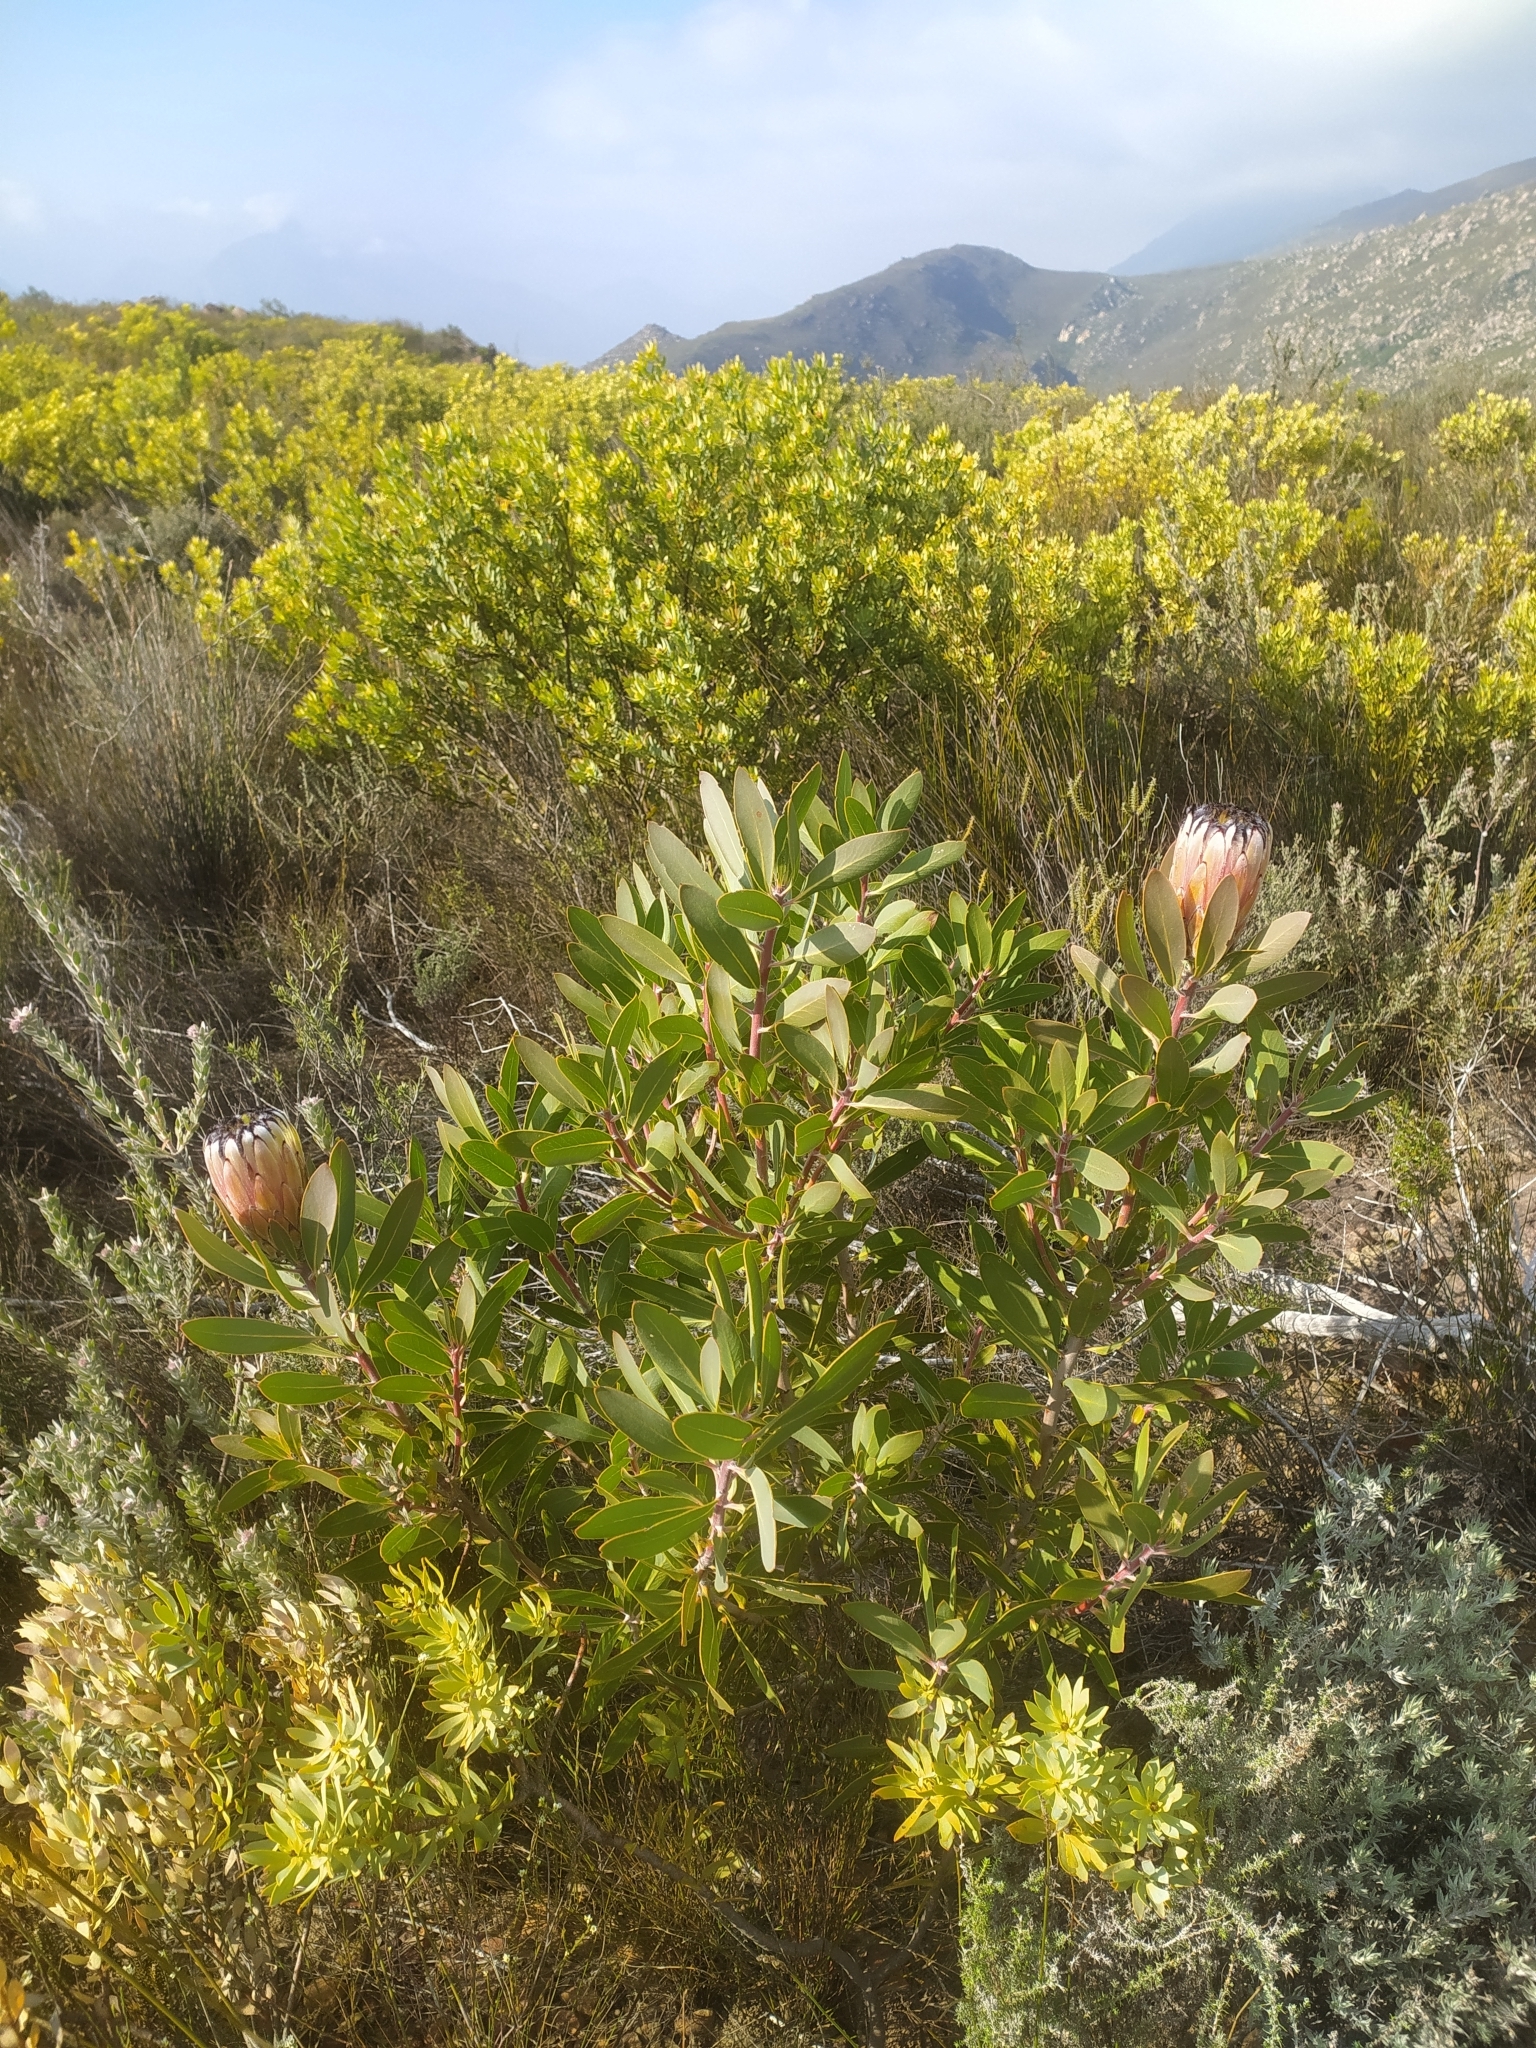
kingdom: Plantae
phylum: Tracheophyta
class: Magnoliopsida
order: Proteales
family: Proteaceae
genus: Protea
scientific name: Protea laurifolia
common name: Grey-leaf sugarbsh
